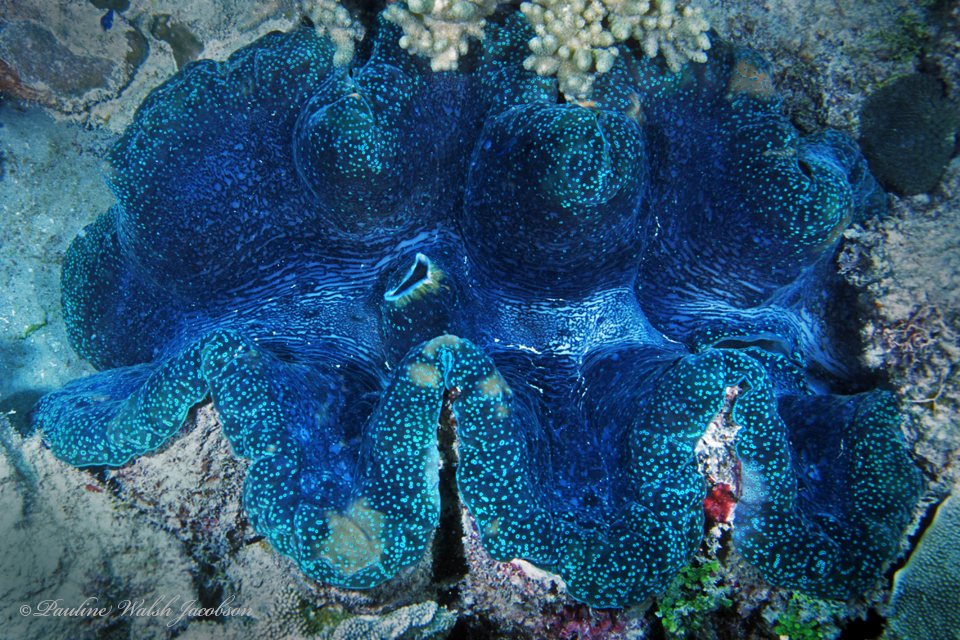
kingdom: Animalia
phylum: Mollusca
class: Bivalvia
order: Cardiida
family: Cardiidae
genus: Tridacna
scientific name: Tridacna gigas
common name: Giant clam
